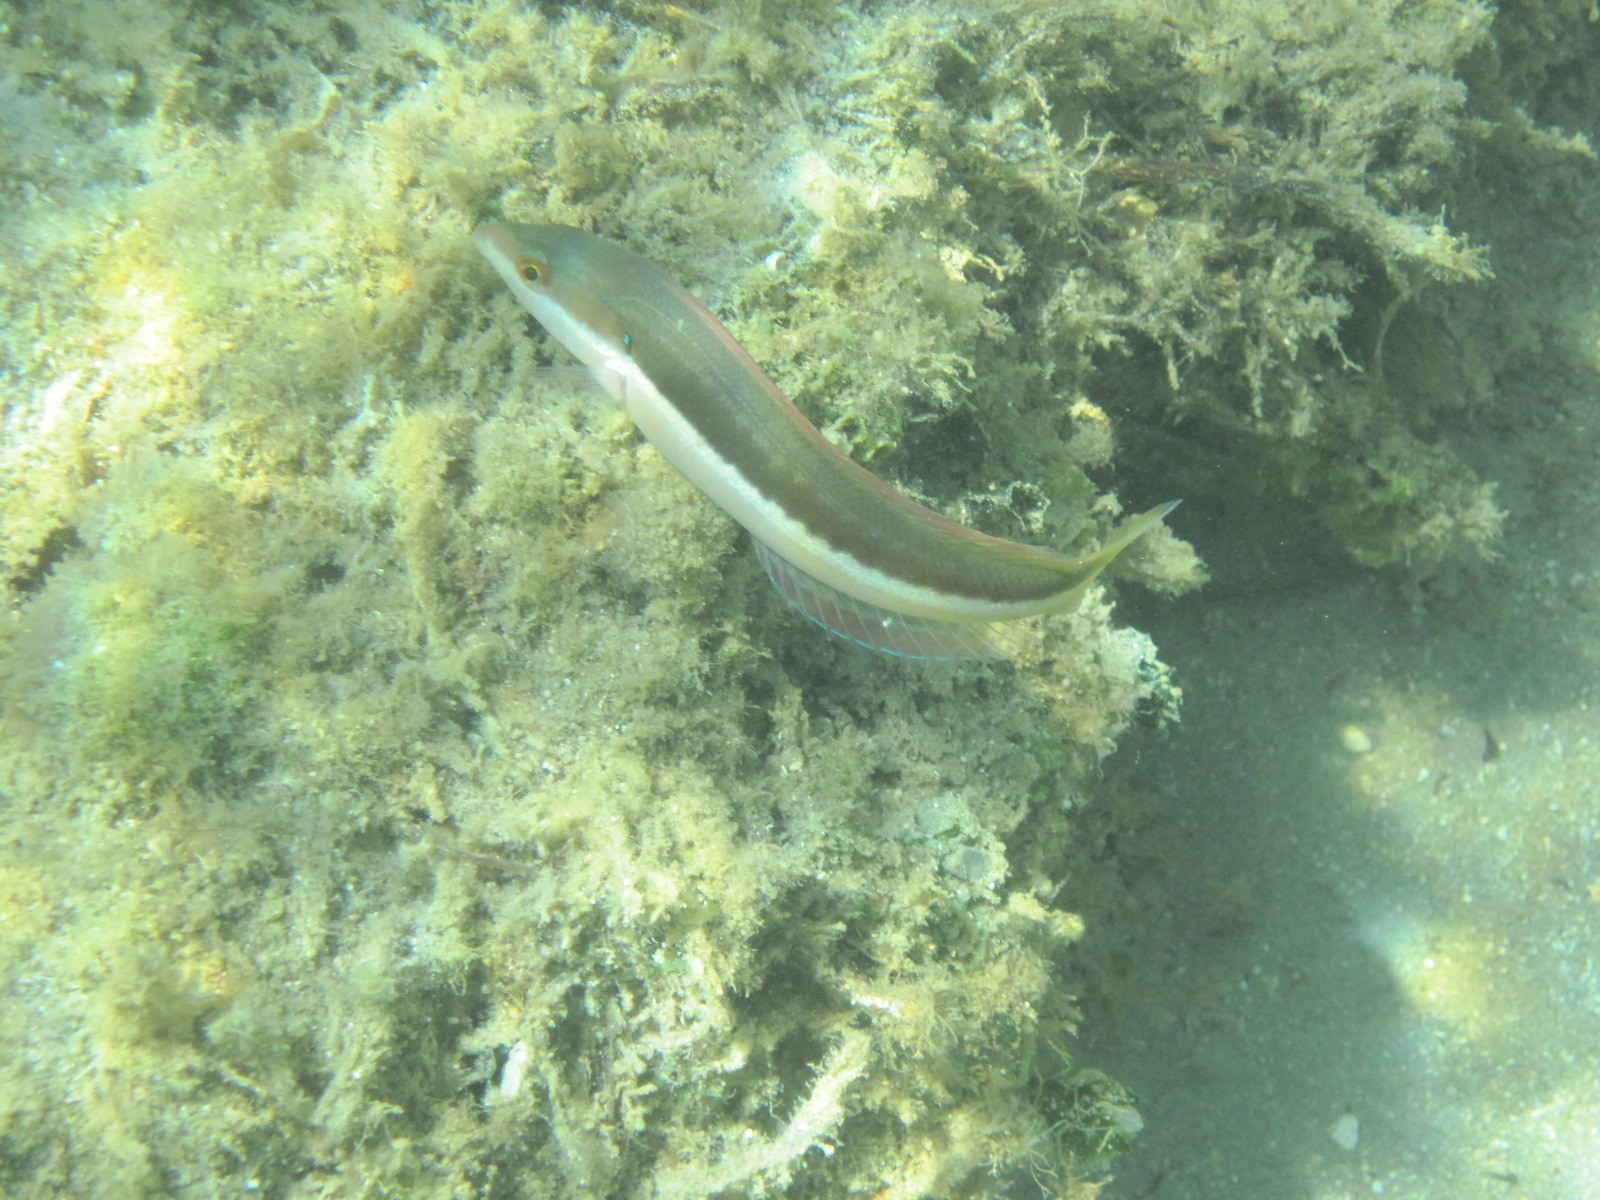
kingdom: Animalia
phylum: Chordata
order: Perciformes
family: Labridae
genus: Coris
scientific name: Coris julis
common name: Rainbow wrasse
